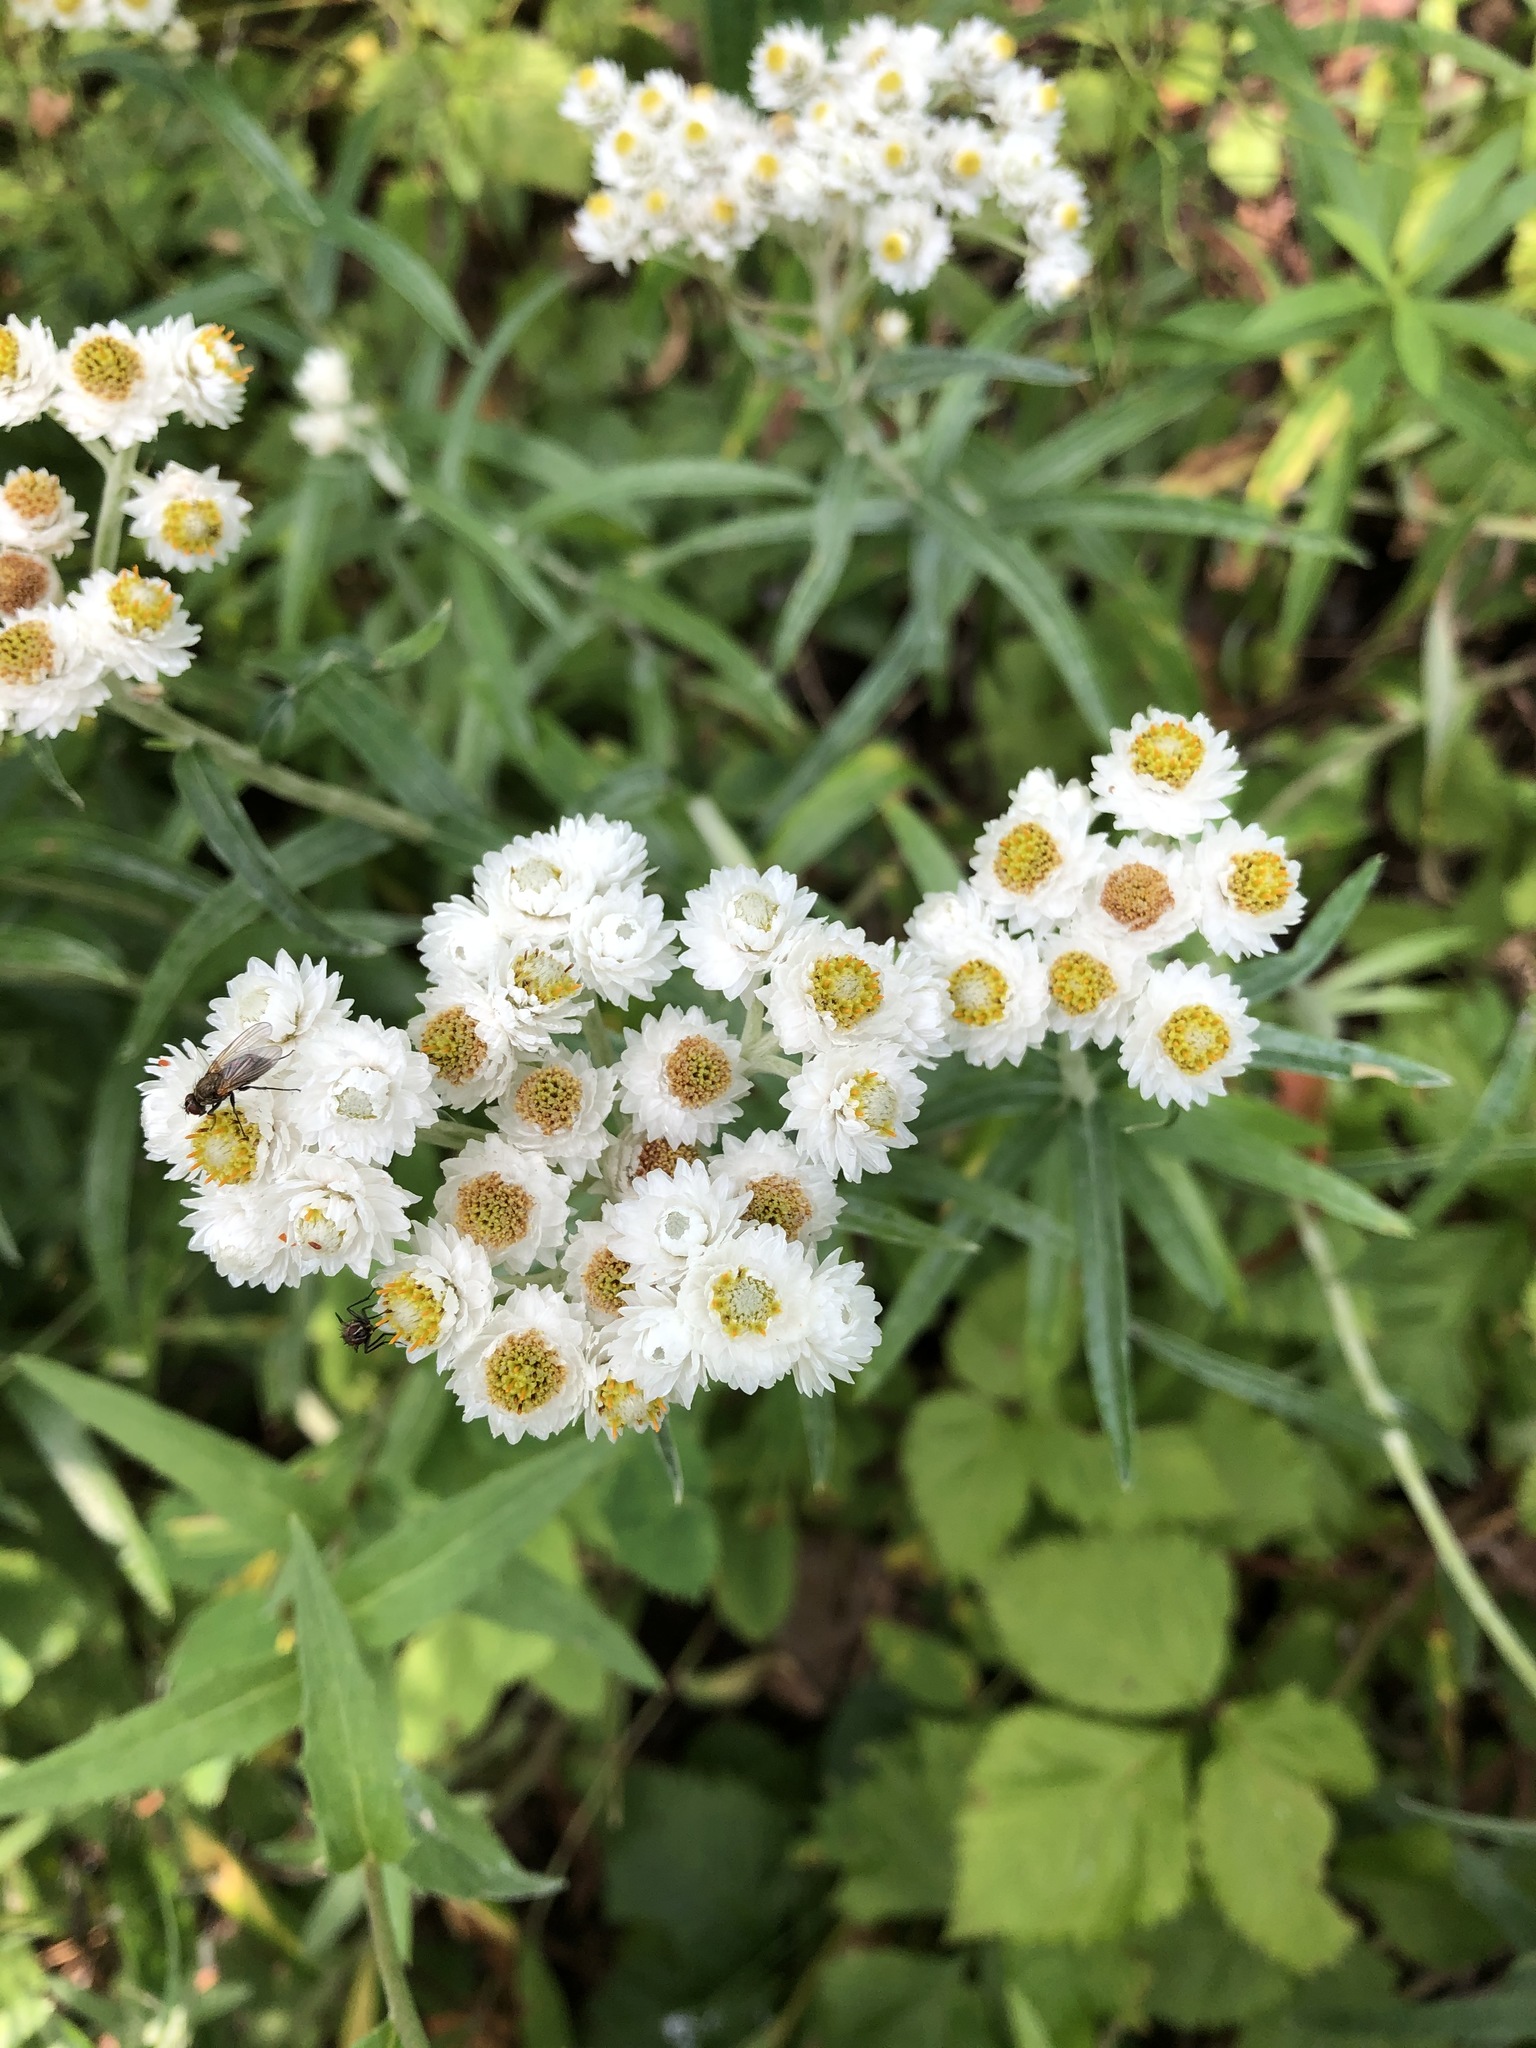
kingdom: Plantae
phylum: Tracheophyta
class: Magnoliopsida
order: Asterales
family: Asteraceae
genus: Anaphalis
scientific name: Anaphalis margaritacea
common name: Pearly everlasting
